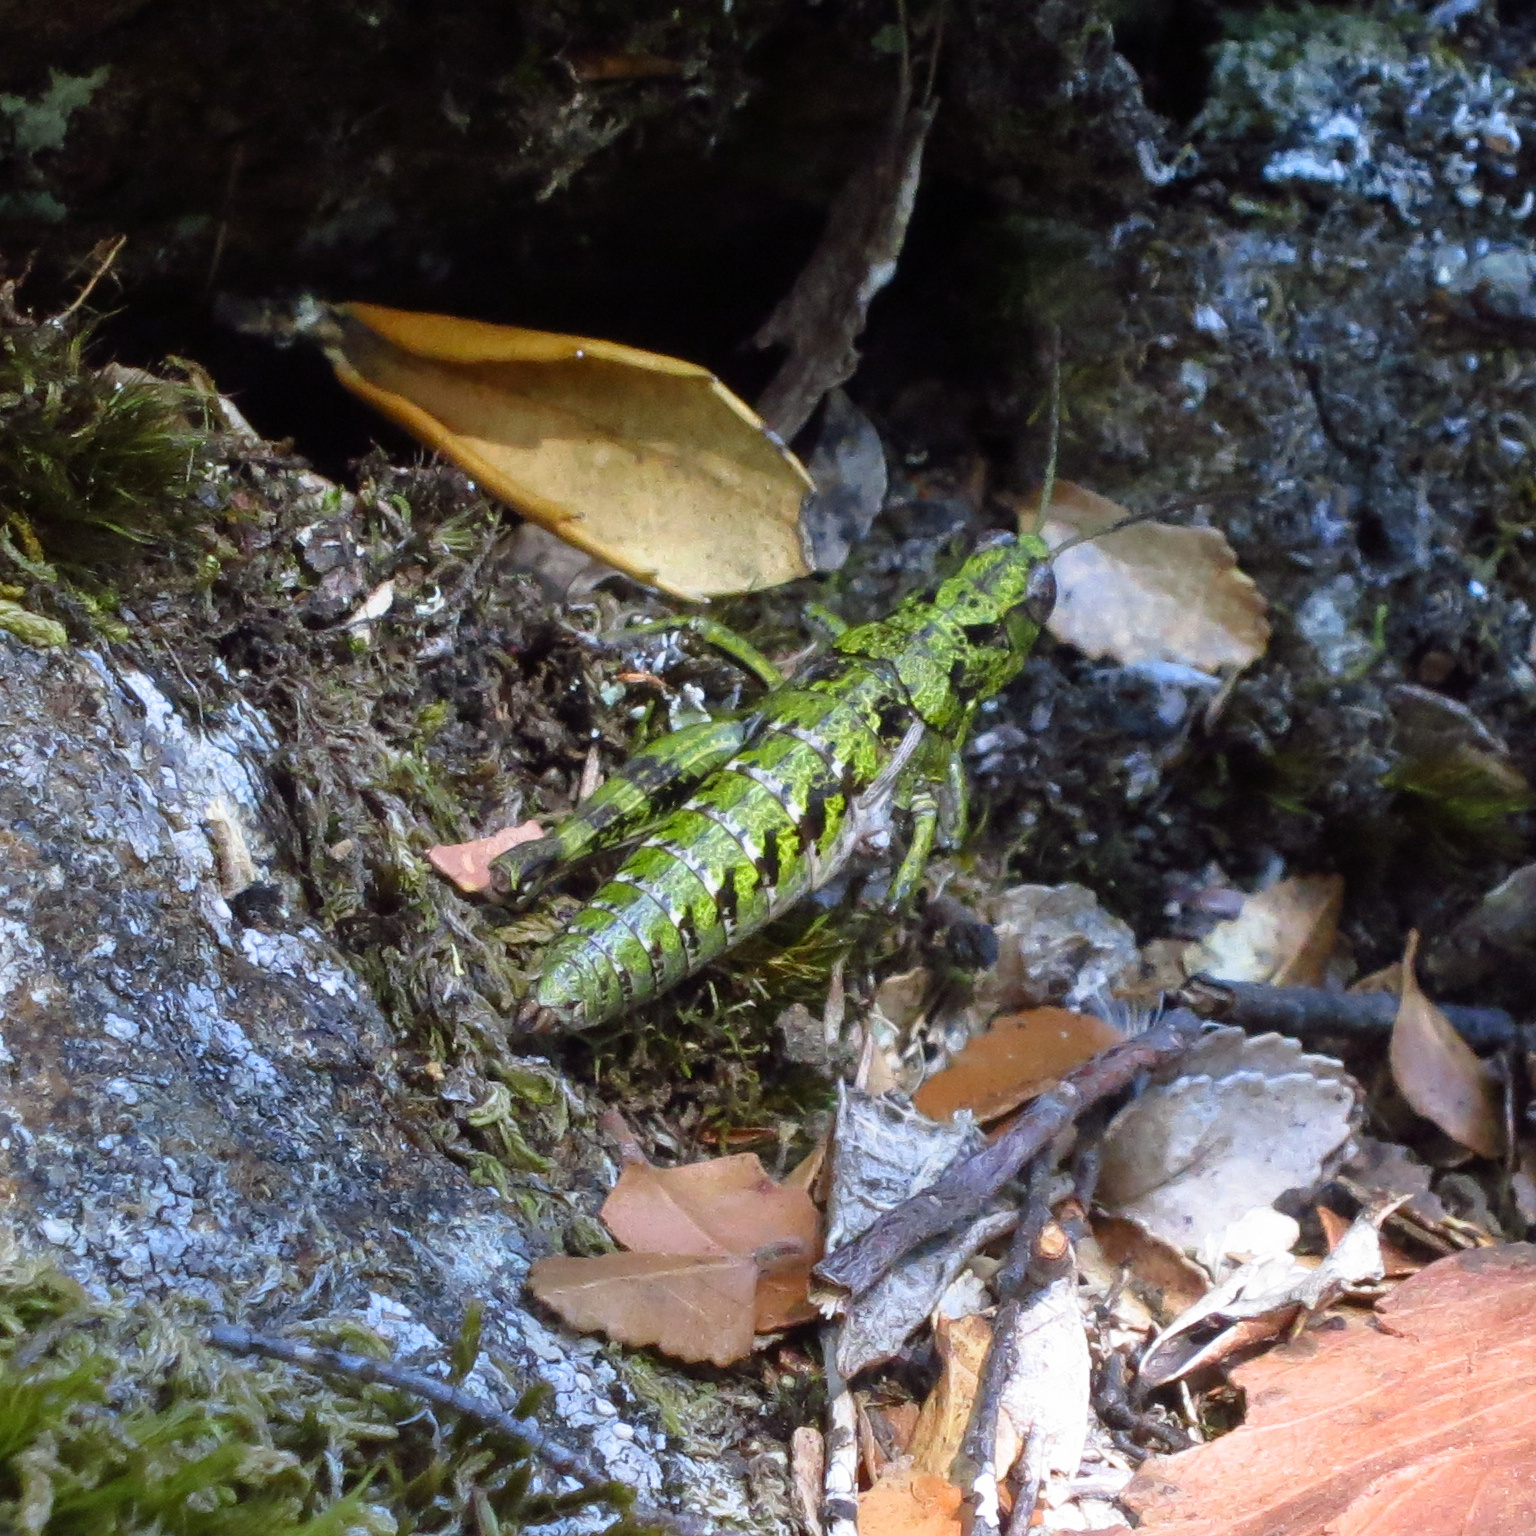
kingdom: Animalia
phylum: Arthropoda
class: Insecta
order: Orthoptera
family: Acrididae
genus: Tasmaniacris
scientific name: Tasmaniacris tasmaniensis
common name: Tasmanian grasshopper
